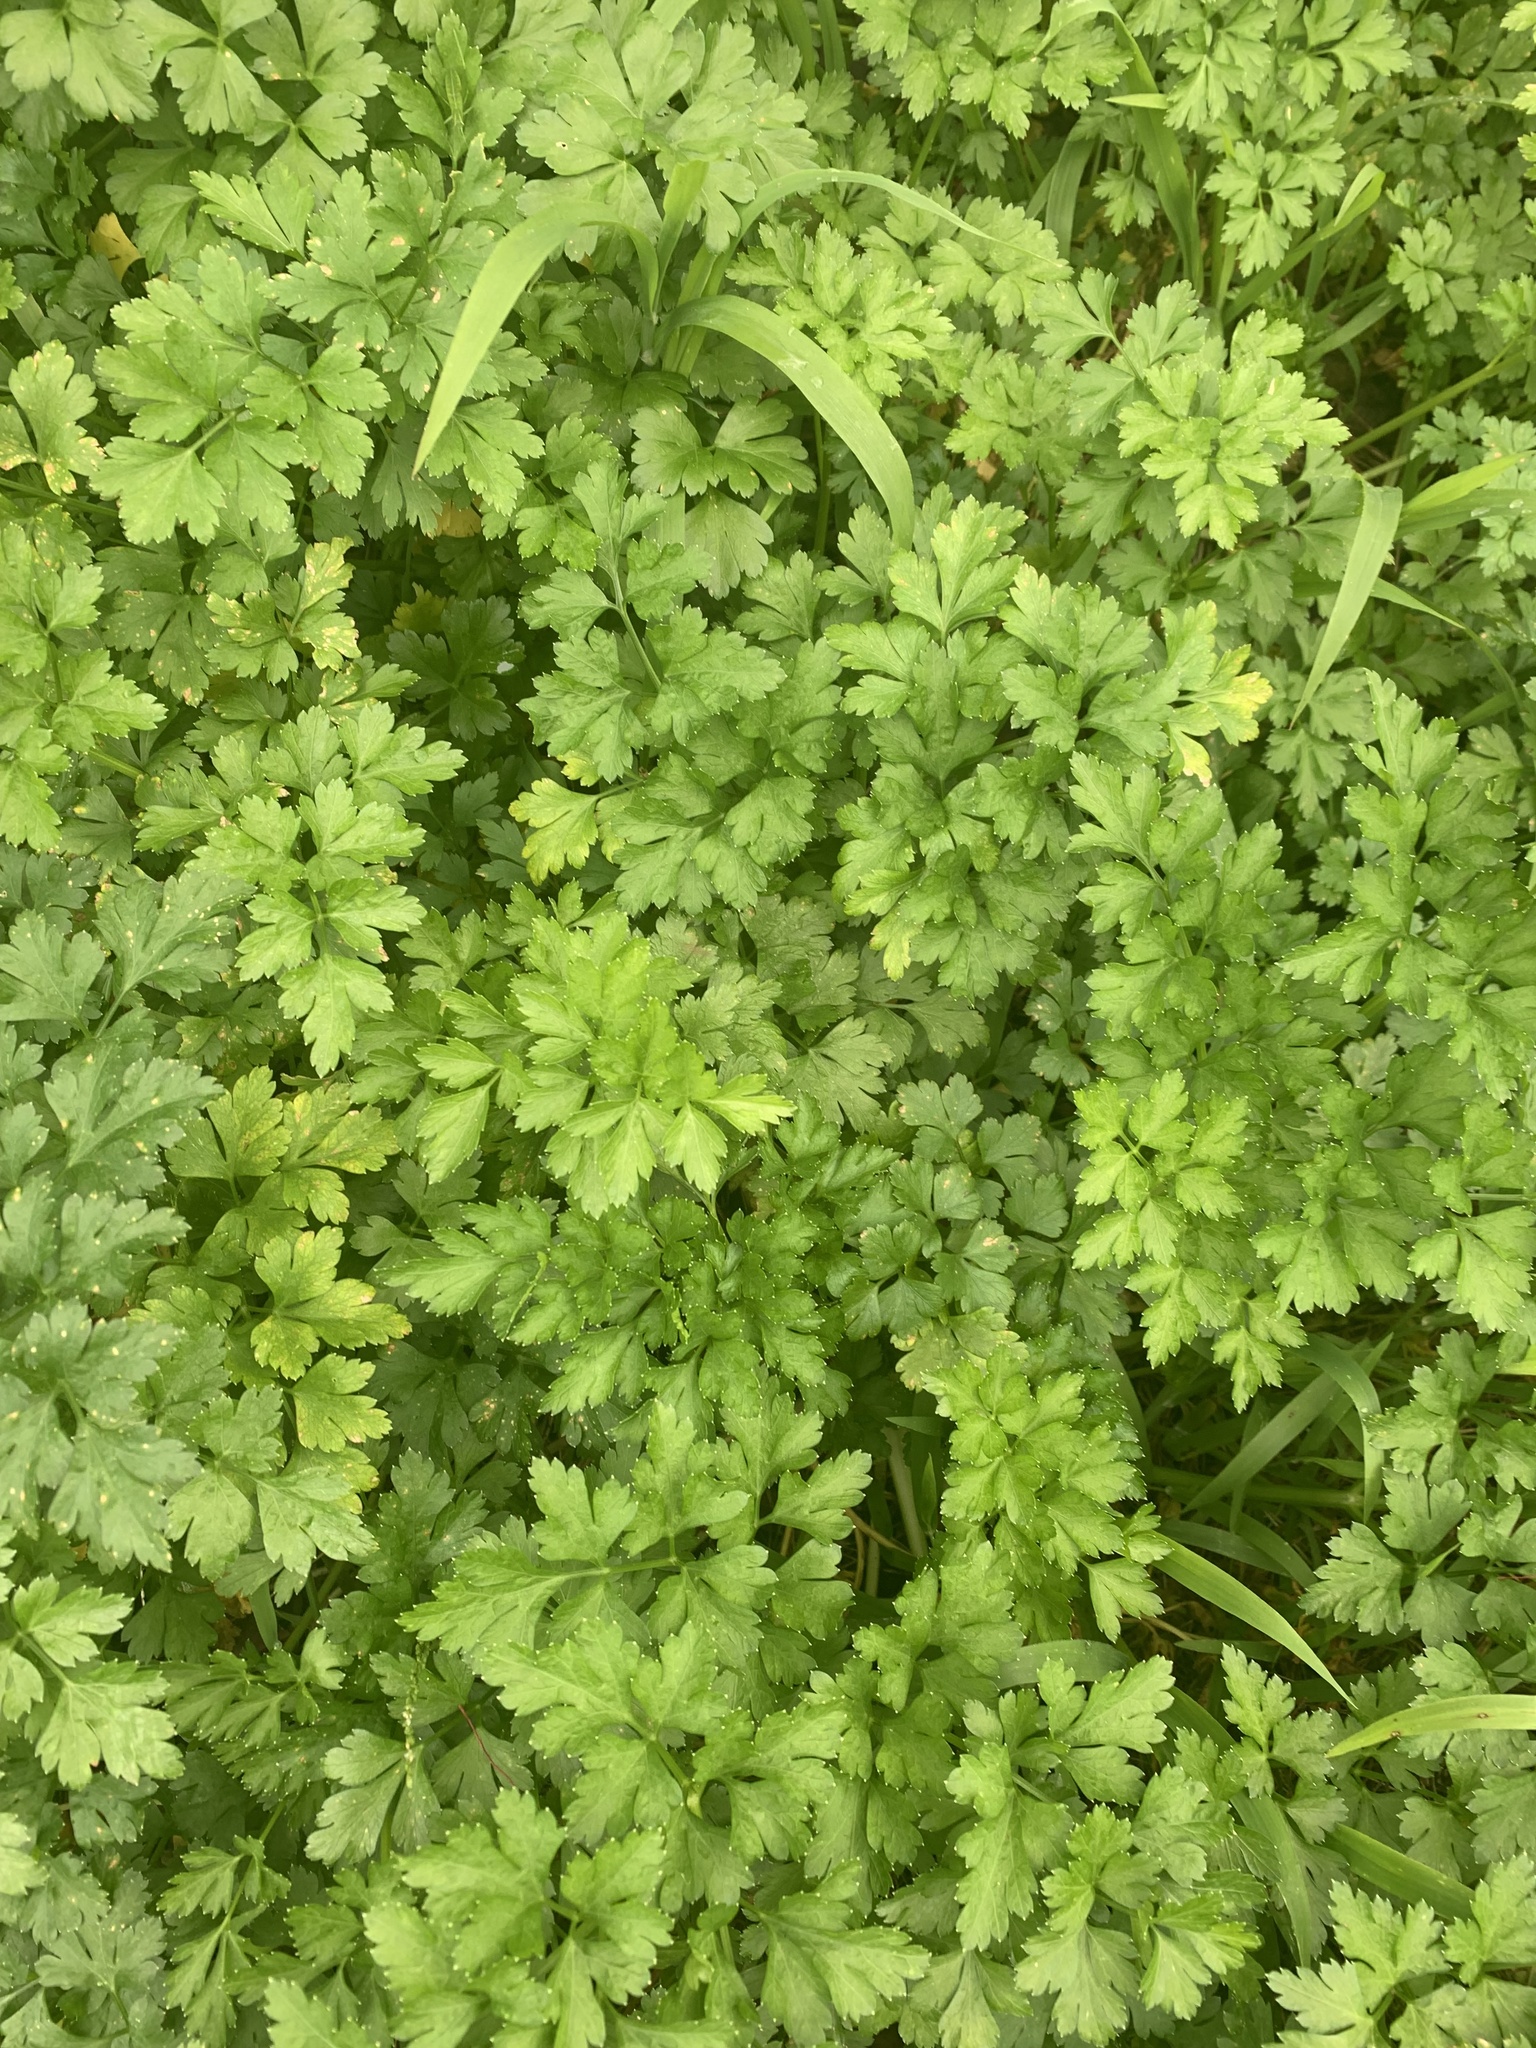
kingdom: Plantae
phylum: Tracheophyta
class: Magnoliopsida
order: Apiales
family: Apiaceae
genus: Petroselinum
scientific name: Petroselinum crispum
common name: Parsley
